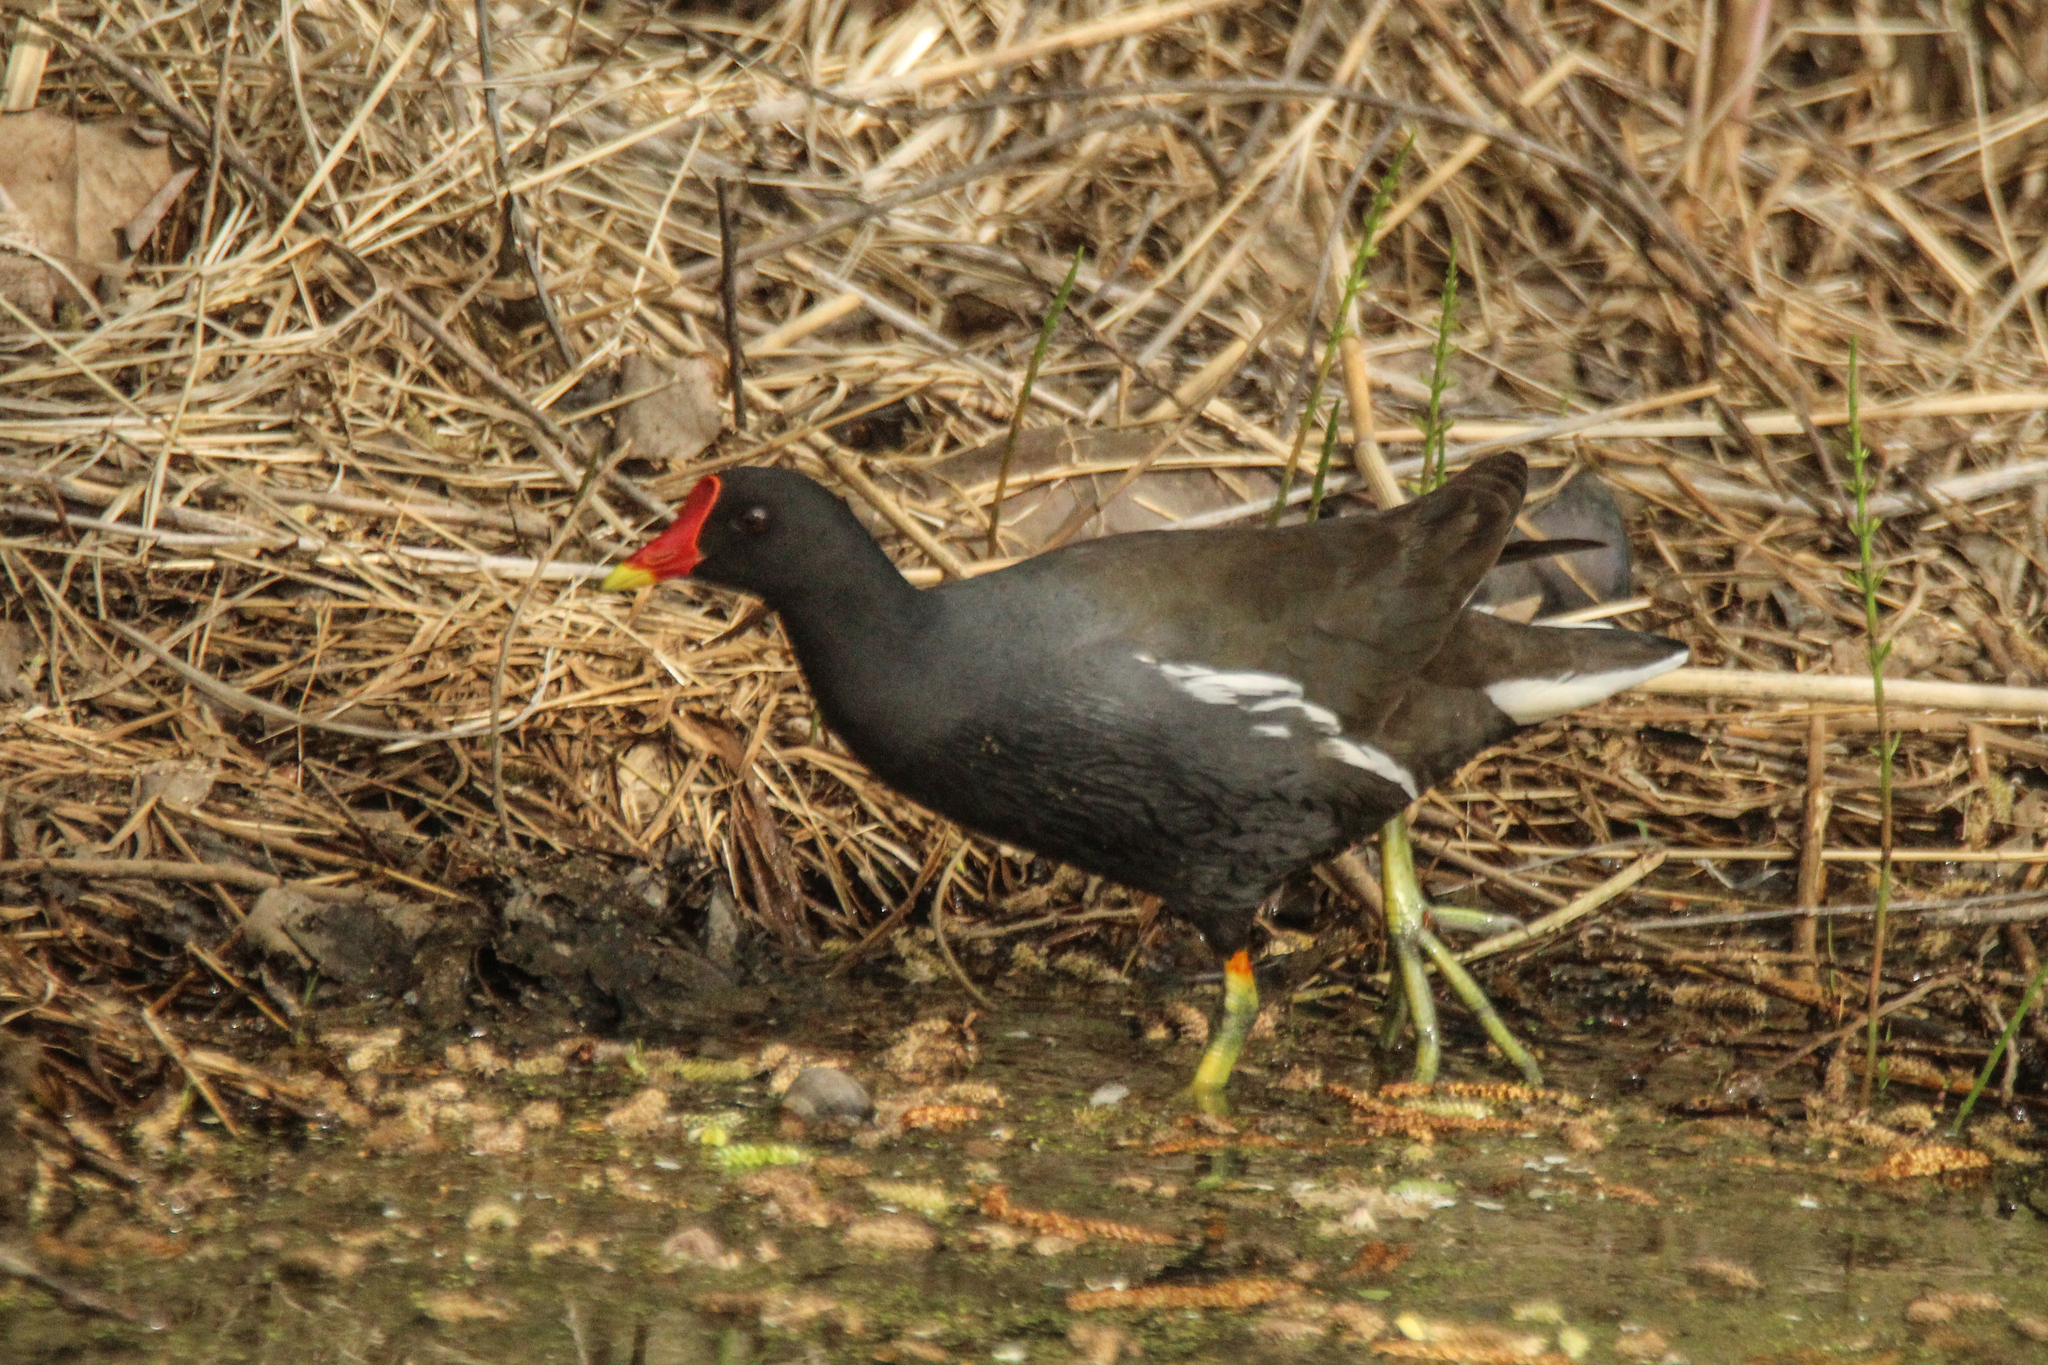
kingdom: Animalia
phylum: Chordata
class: Aves
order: Gruiformes
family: Rallidae
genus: Gallinula
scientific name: Gallinula chloropus
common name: Common moorhen
